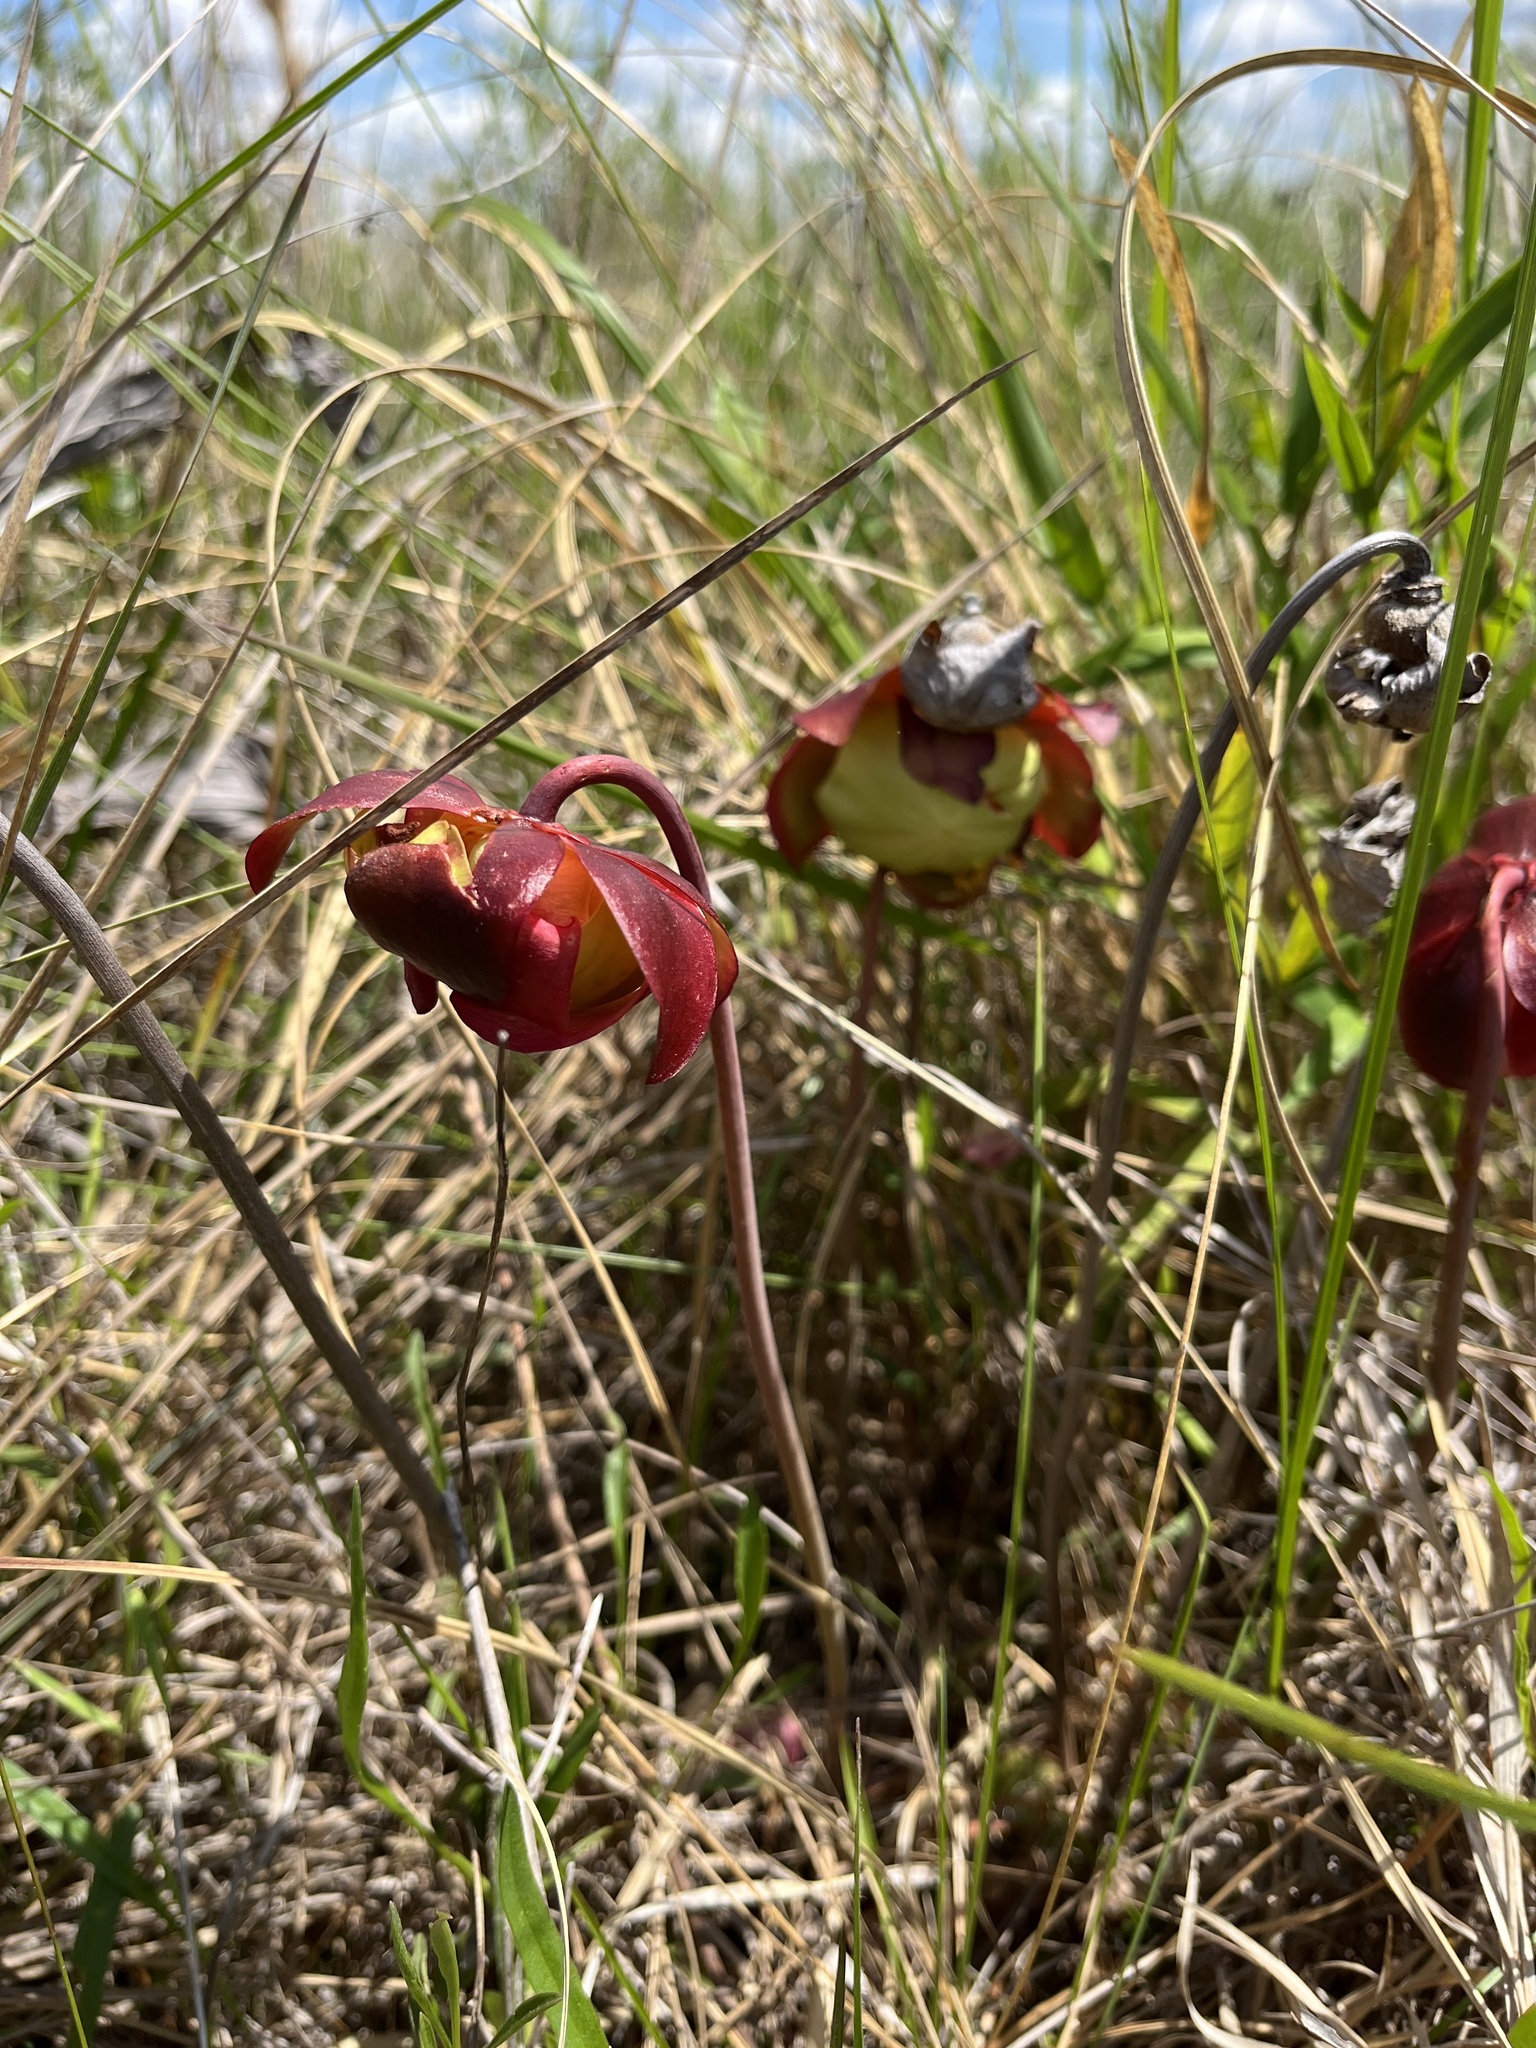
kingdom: Plantae
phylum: Tracheophyta
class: Magnoliopsida
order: Ericales
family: Sarraceniaceae
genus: Sarracenia
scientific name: Sarracenia purpurea
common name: Pitcherplant
